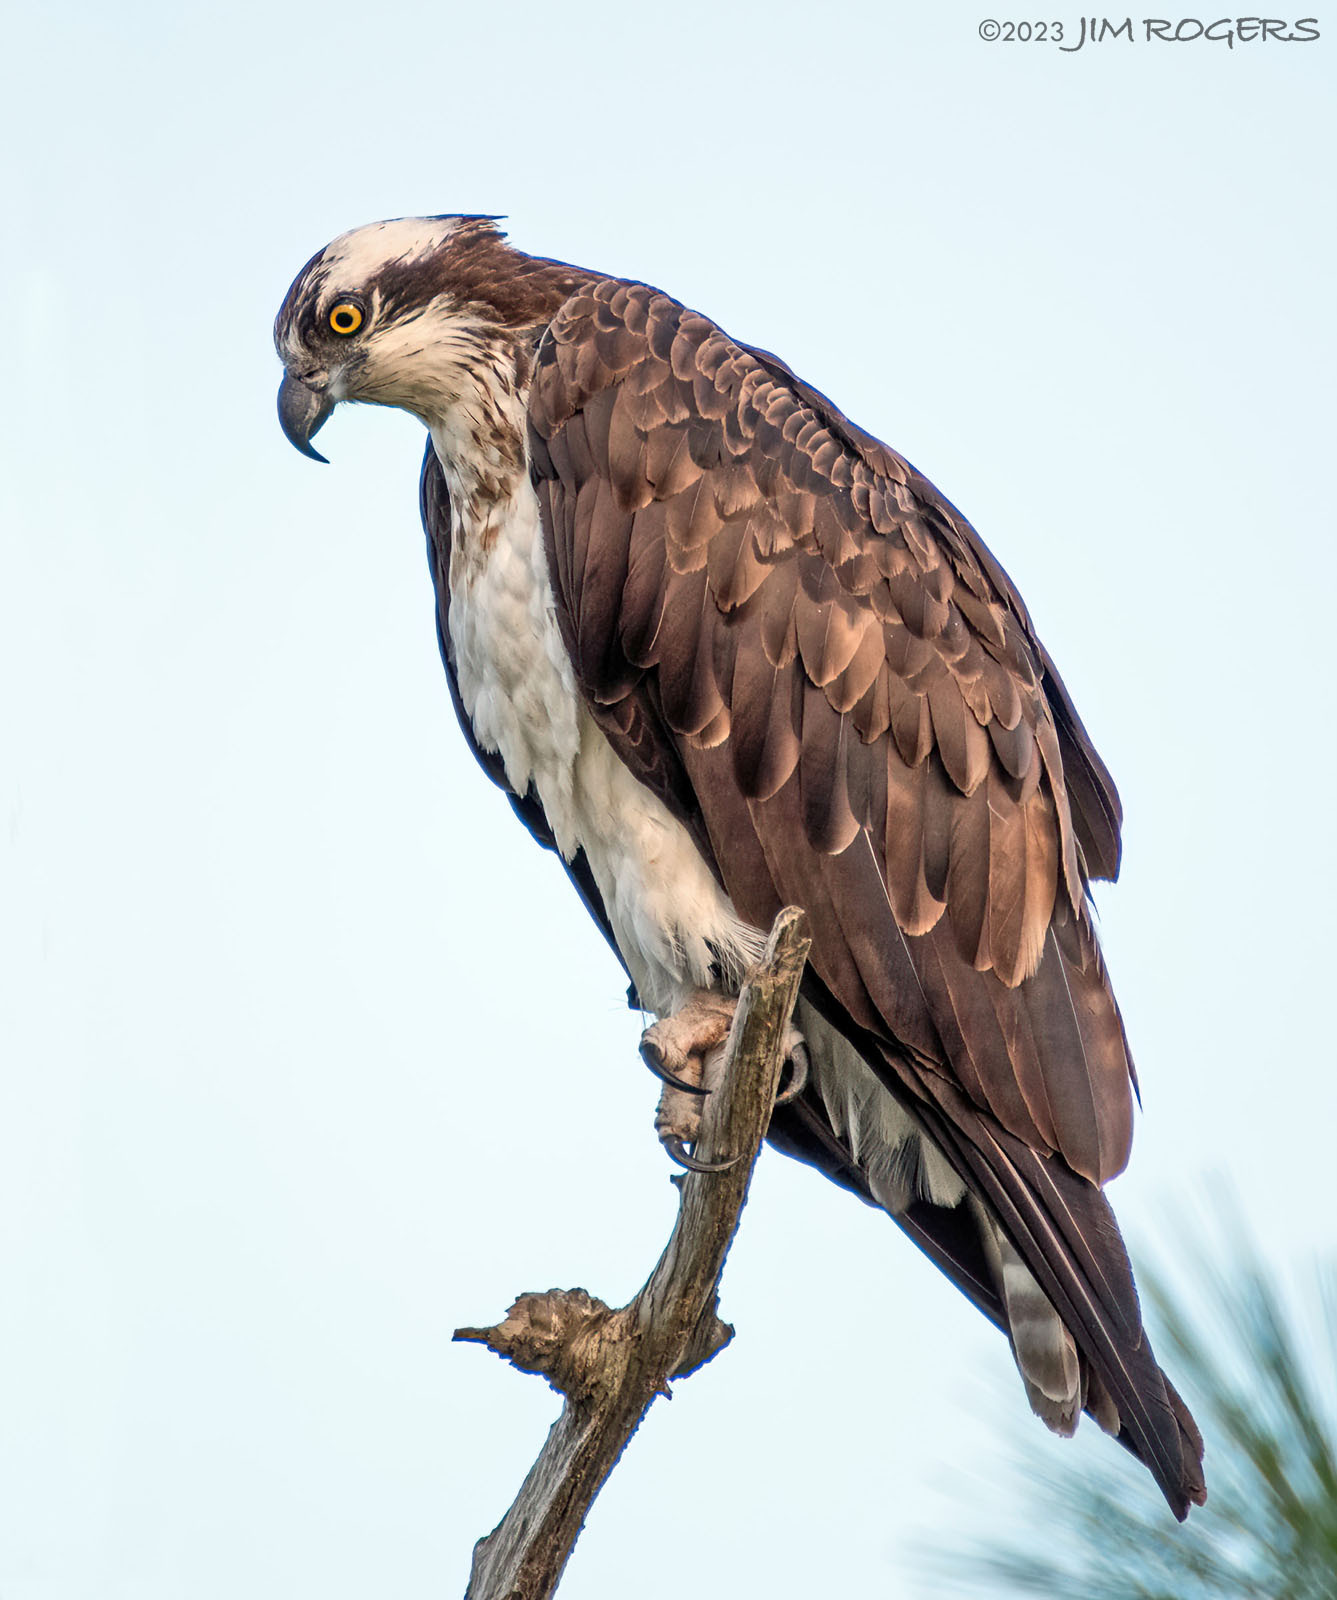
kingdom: Animalia
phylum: Chordata
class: Aves
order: Accipitriformes
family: Pandionidae
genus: Pandion
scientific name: Pandion haliaetus
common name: Osprey
